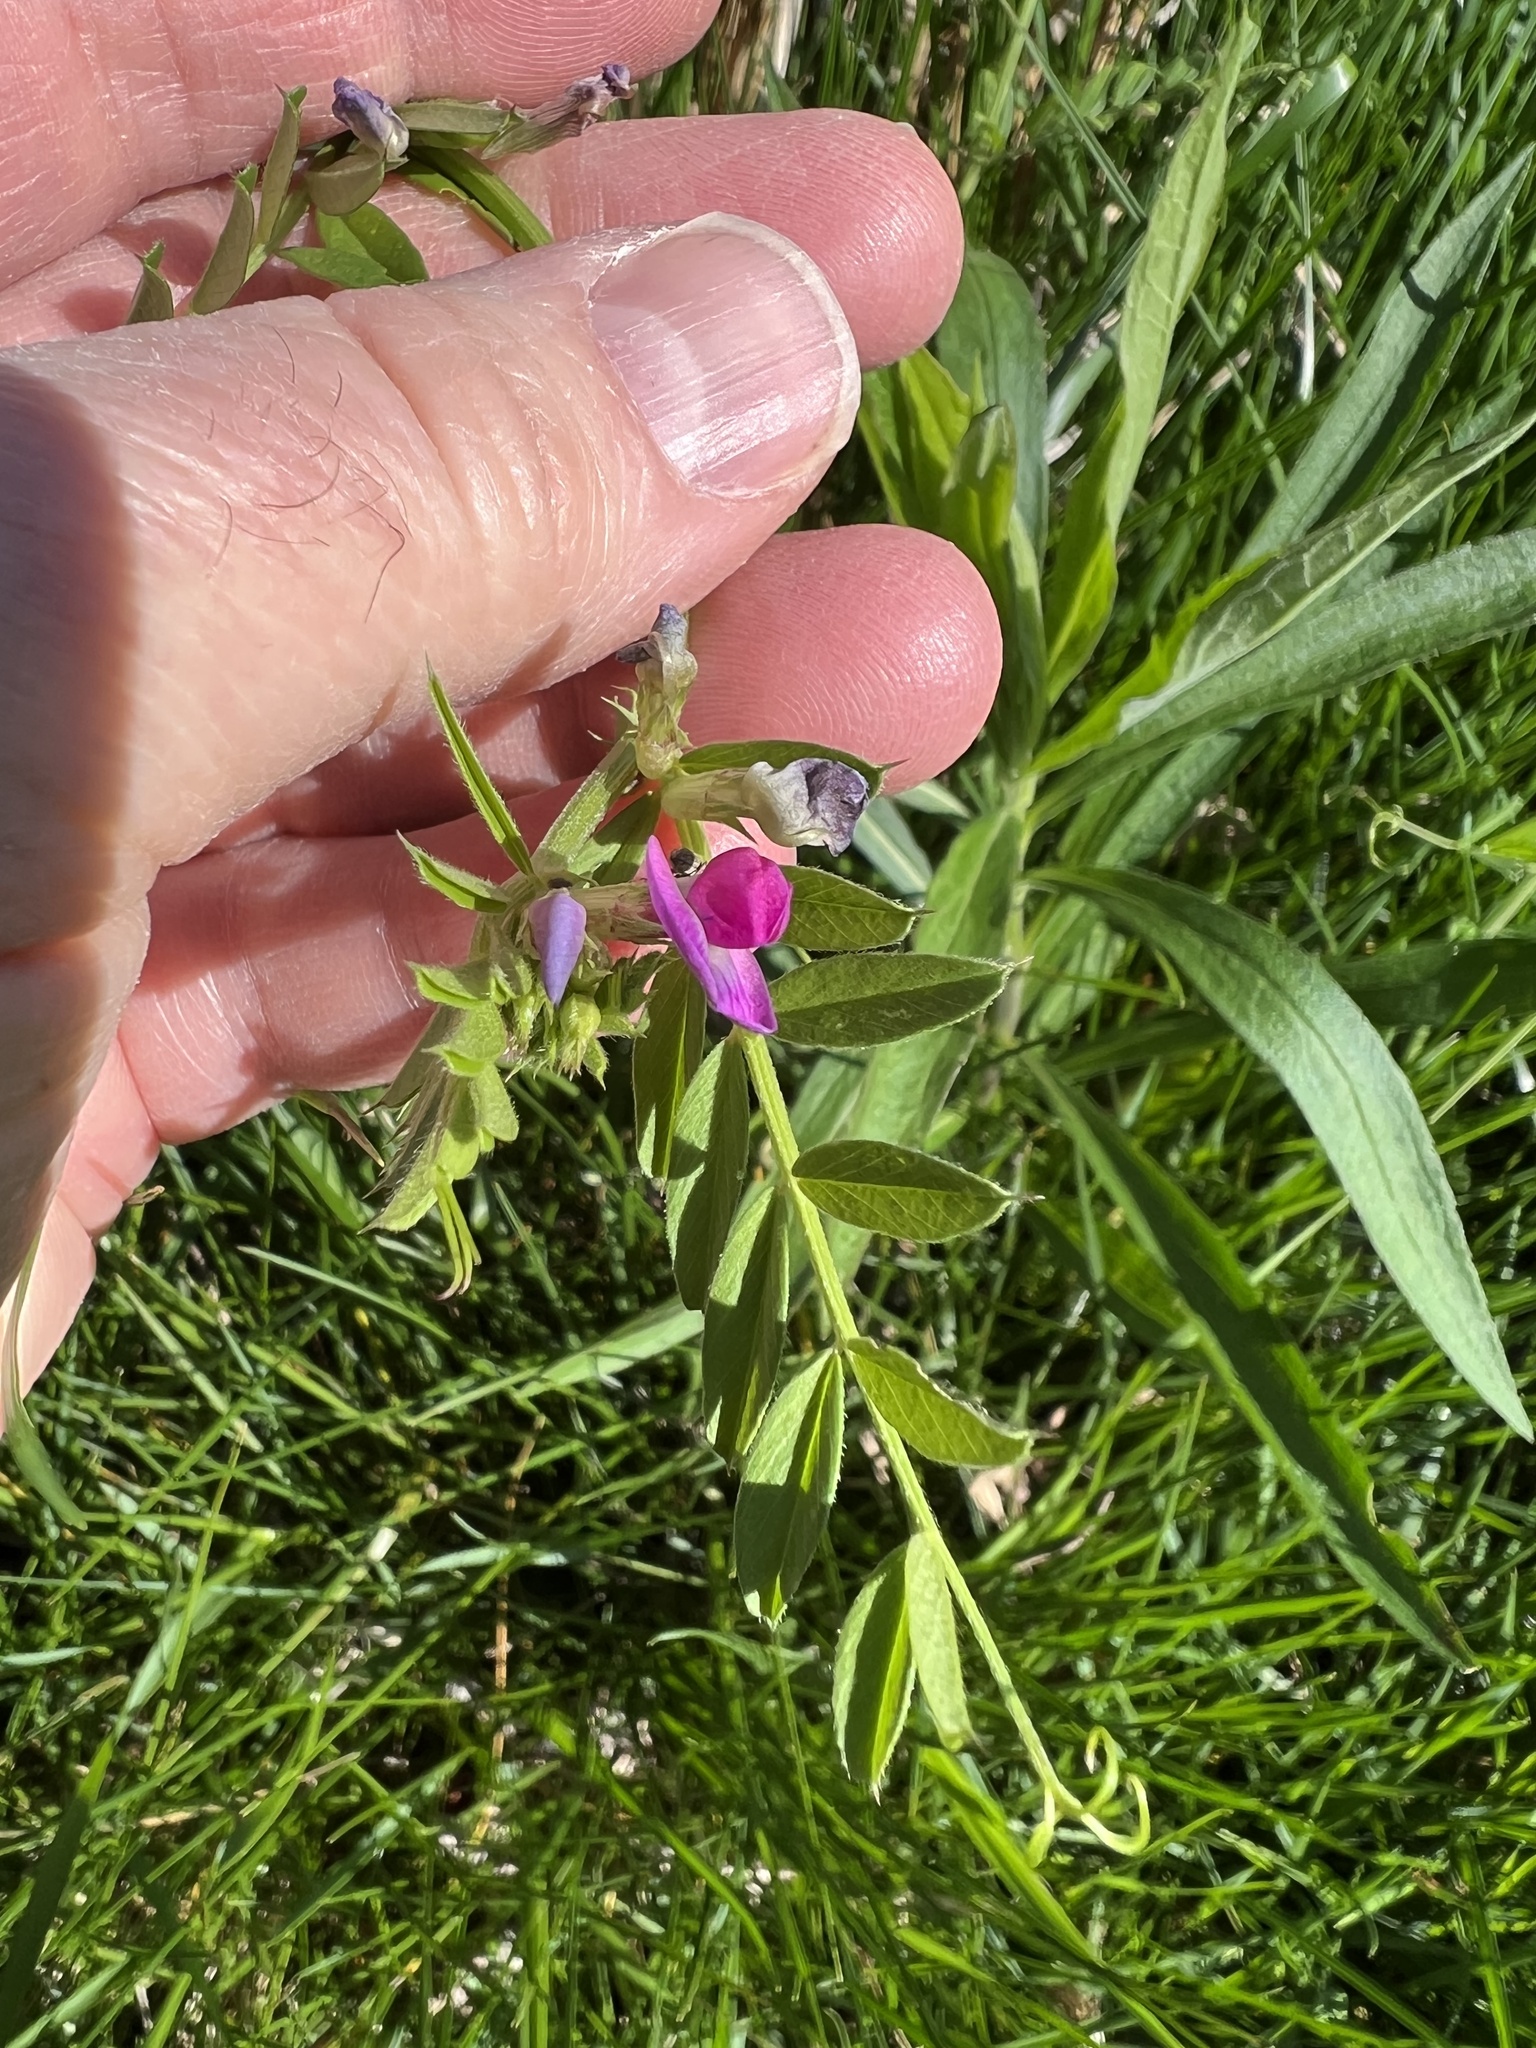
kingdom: Plantae
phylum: Tracheophyta
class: Magnoliopsida
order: Fabales
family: Fabaceae
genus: Vicia
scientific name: Vicia sativa
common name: Garden vetch
